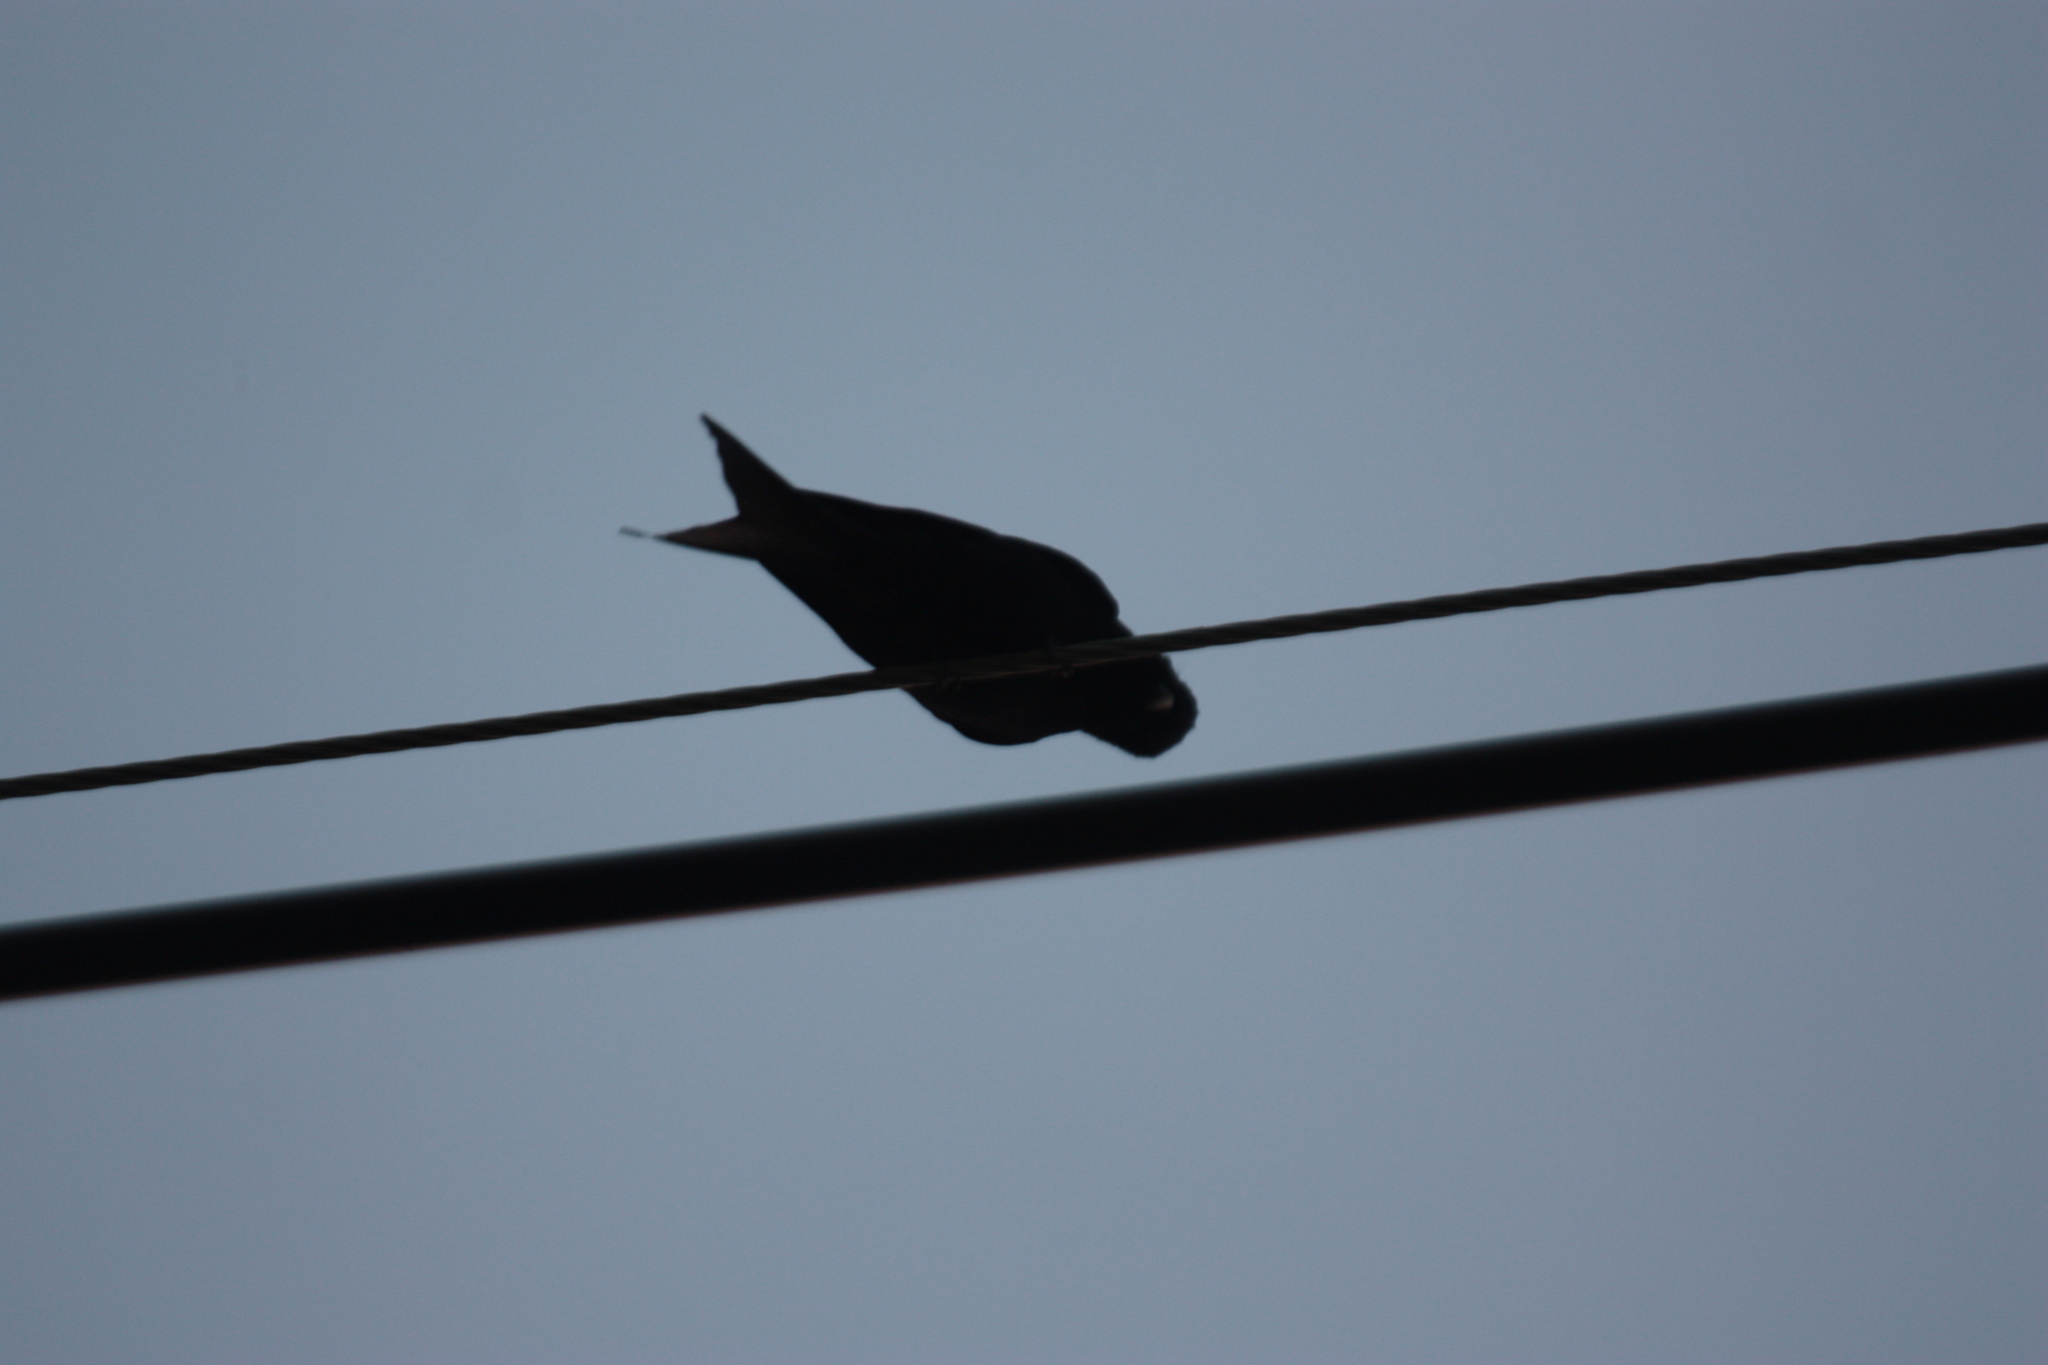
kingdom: Animalia
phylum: Chordata
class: Aves
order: Passeriformes
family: Dicruridae
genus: Dicrurus
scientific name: Dicrurus macrocercus
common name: Black drongo
